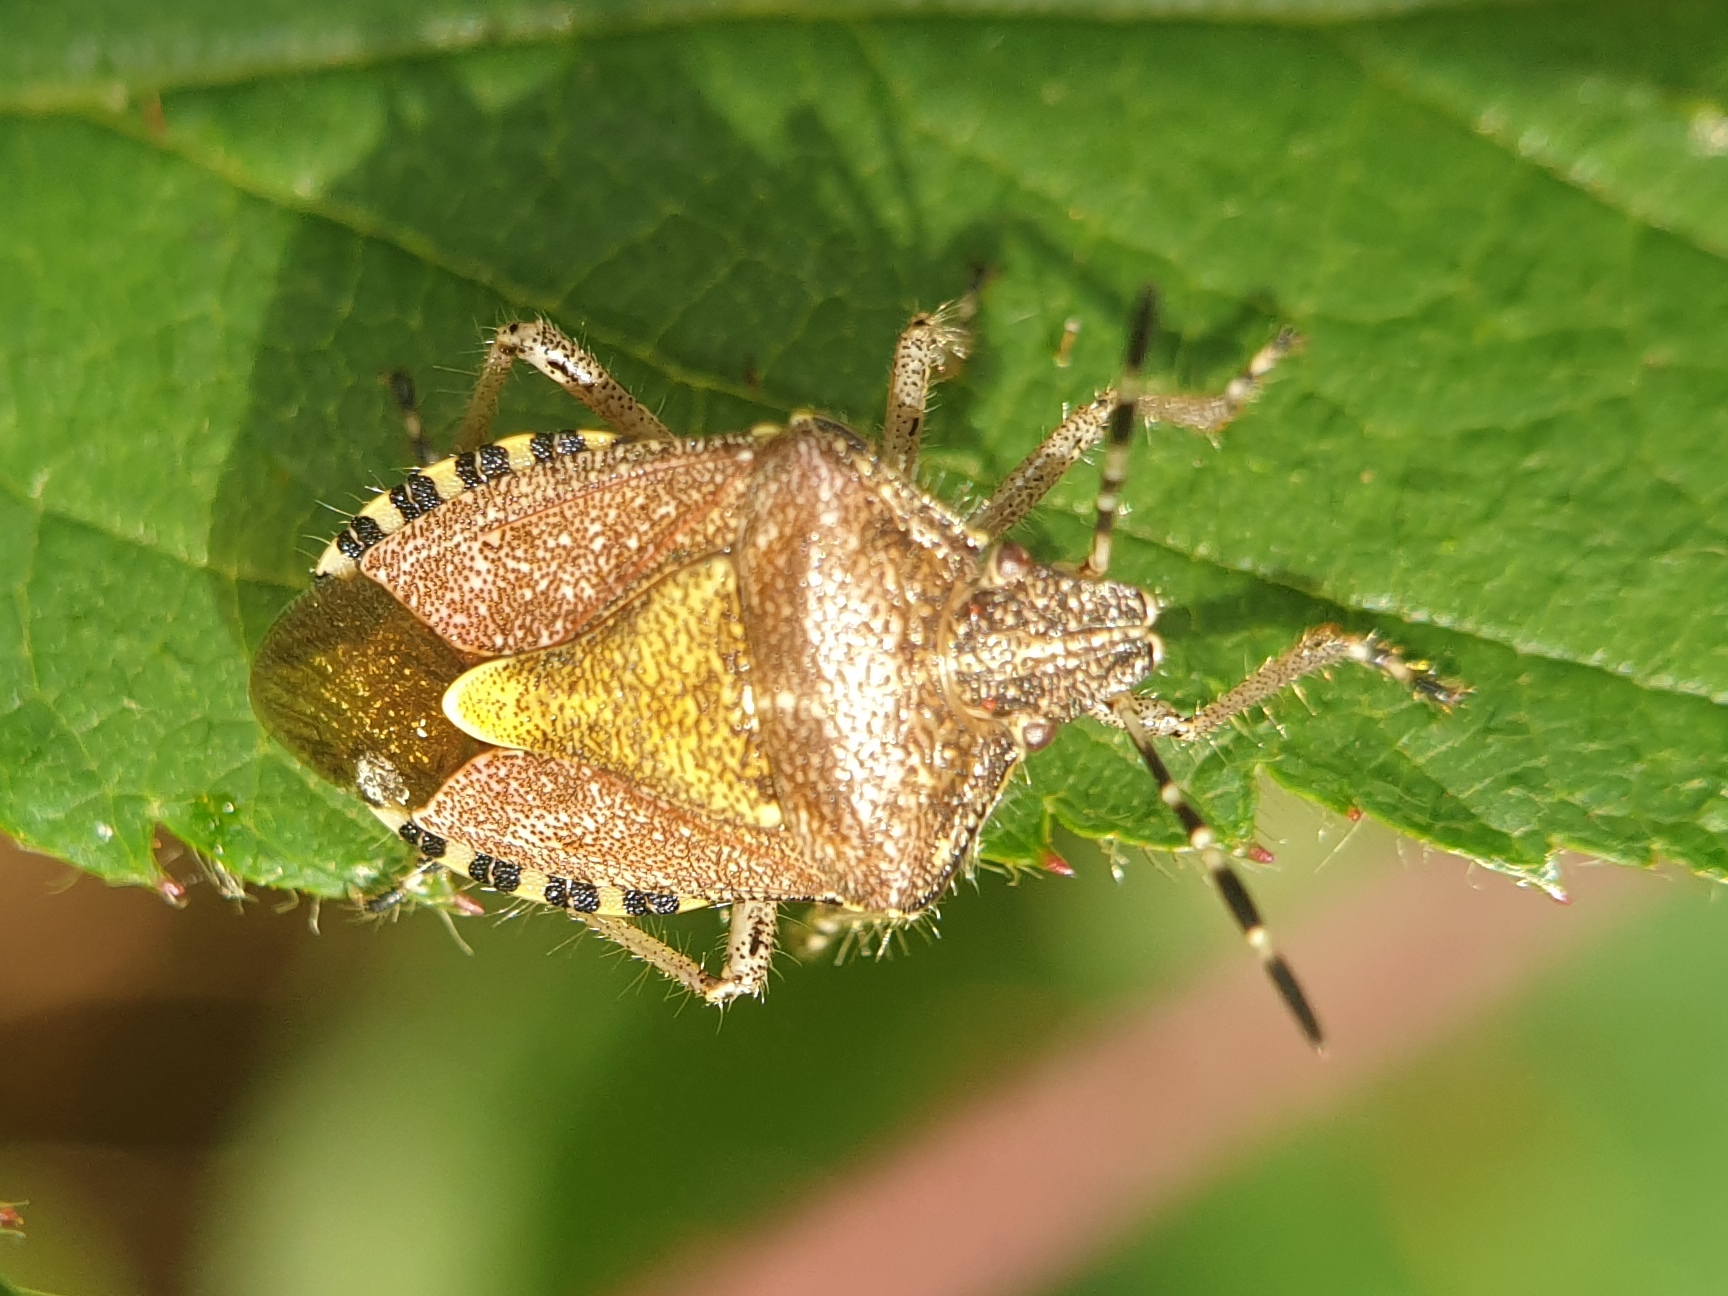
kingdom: Animalia
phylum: Arthropoda
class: Insecta
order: Hemiptera
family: Pentatomidae
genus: Dolycoris
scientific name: Dolycoris baccarum
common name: Sloe bug
